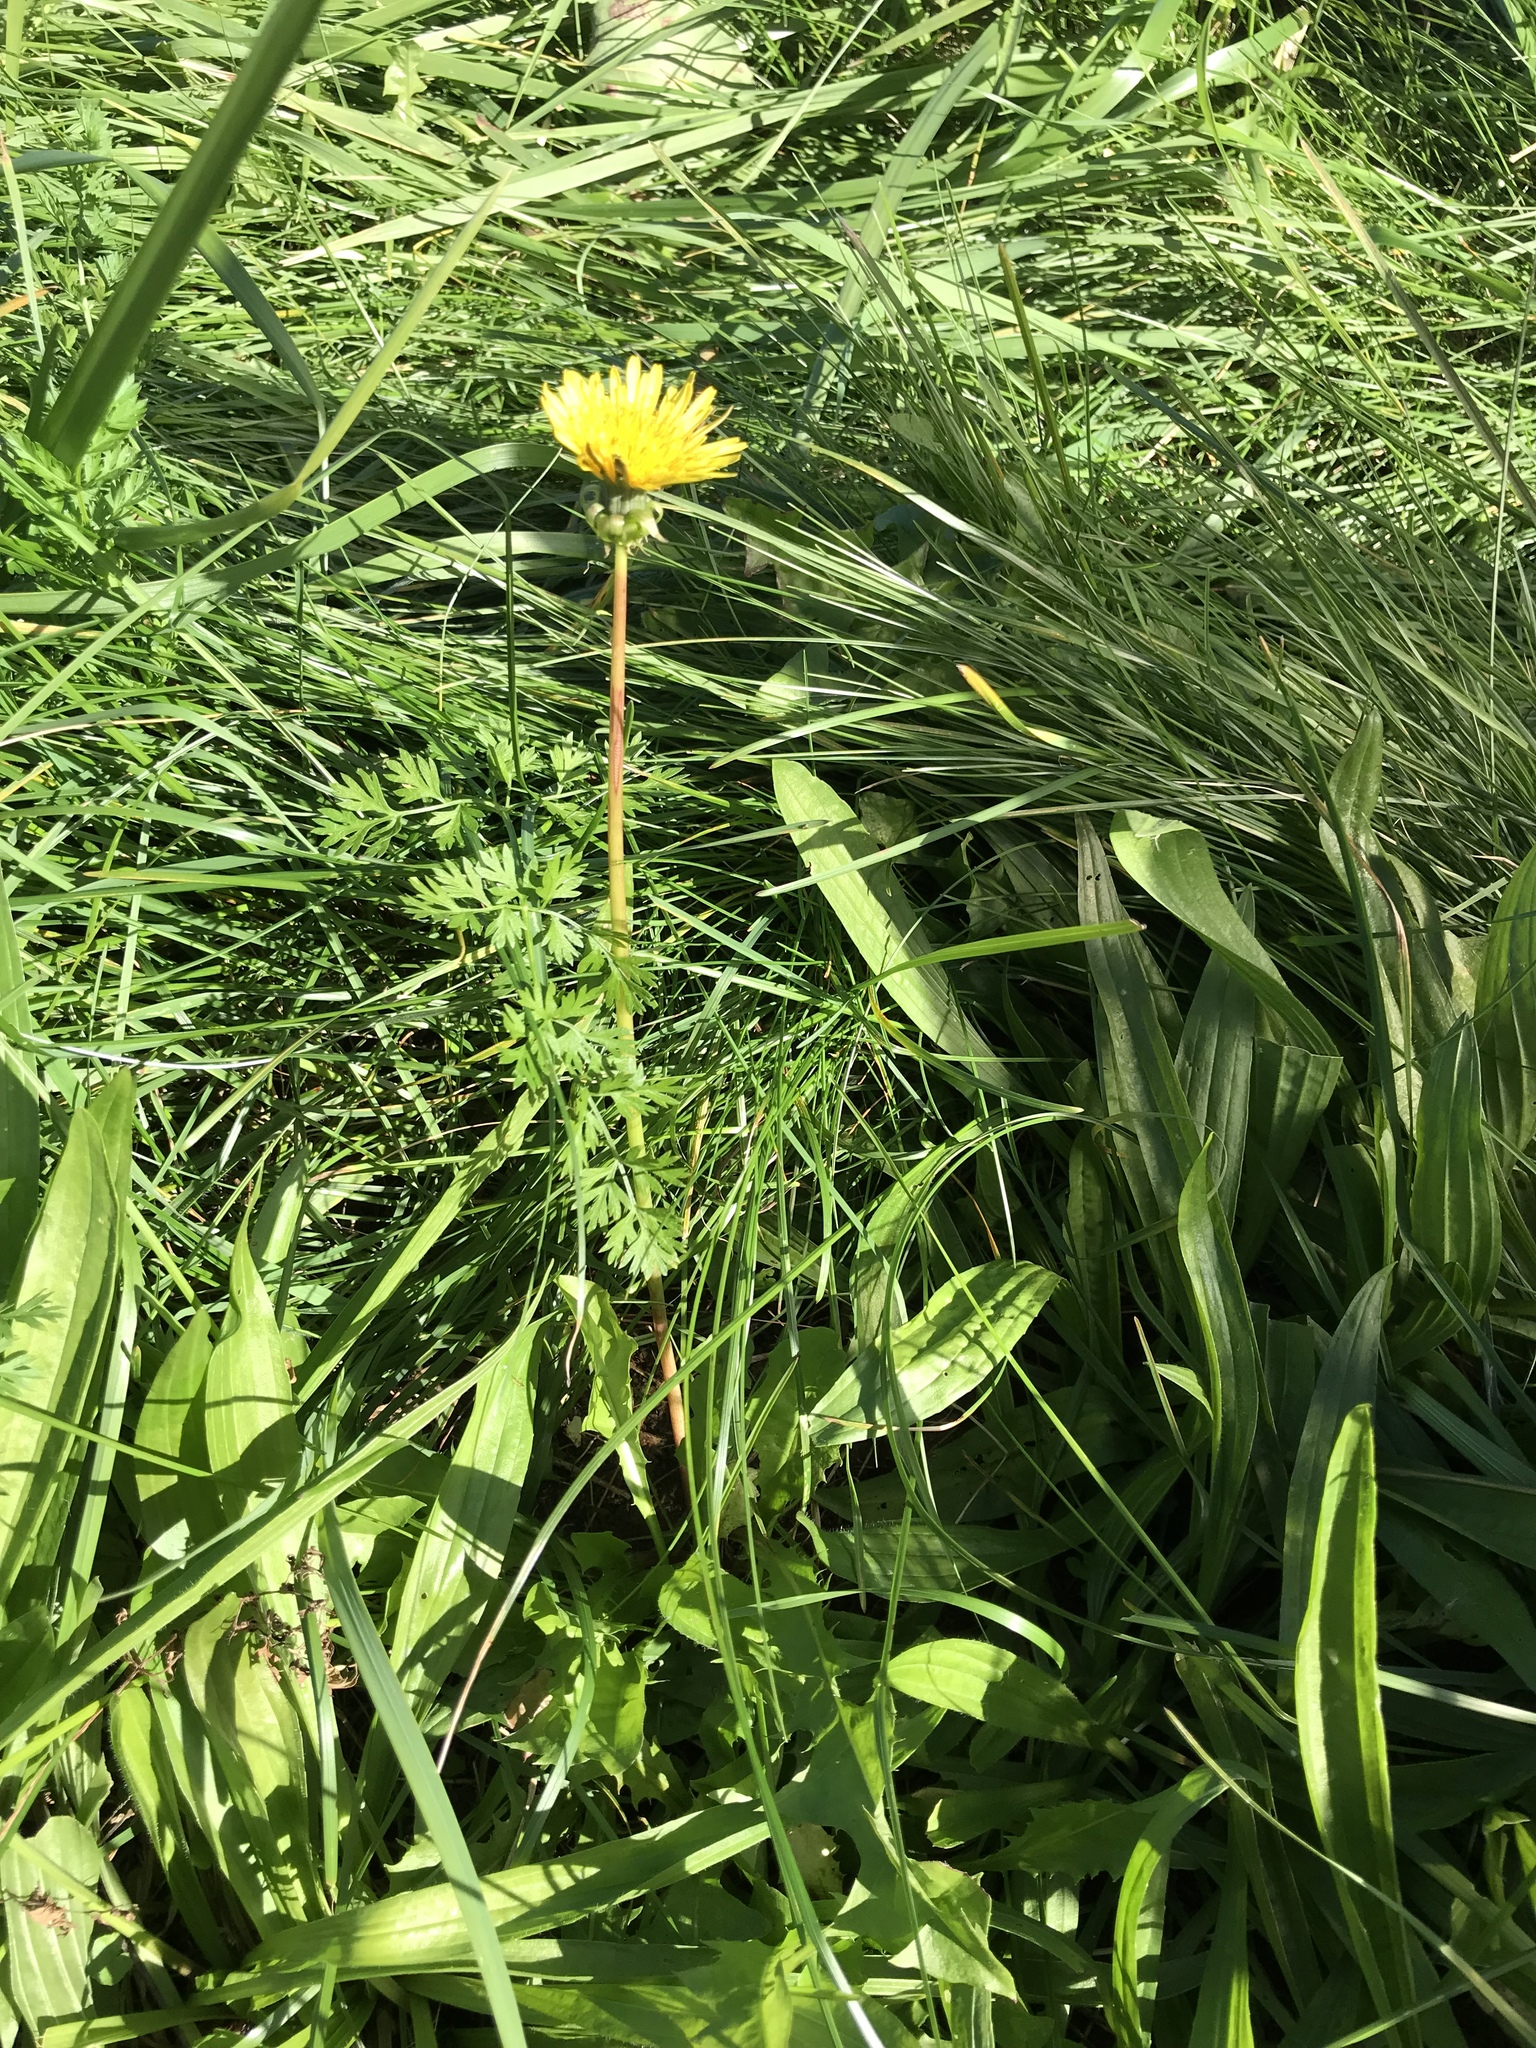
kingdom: Plantae
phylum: Tracheophyta
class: Magnoliopsida
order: Asterales
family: Asteraceae
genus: Taraxacum
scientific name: Taraxacum officinale
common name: Common dandelion
